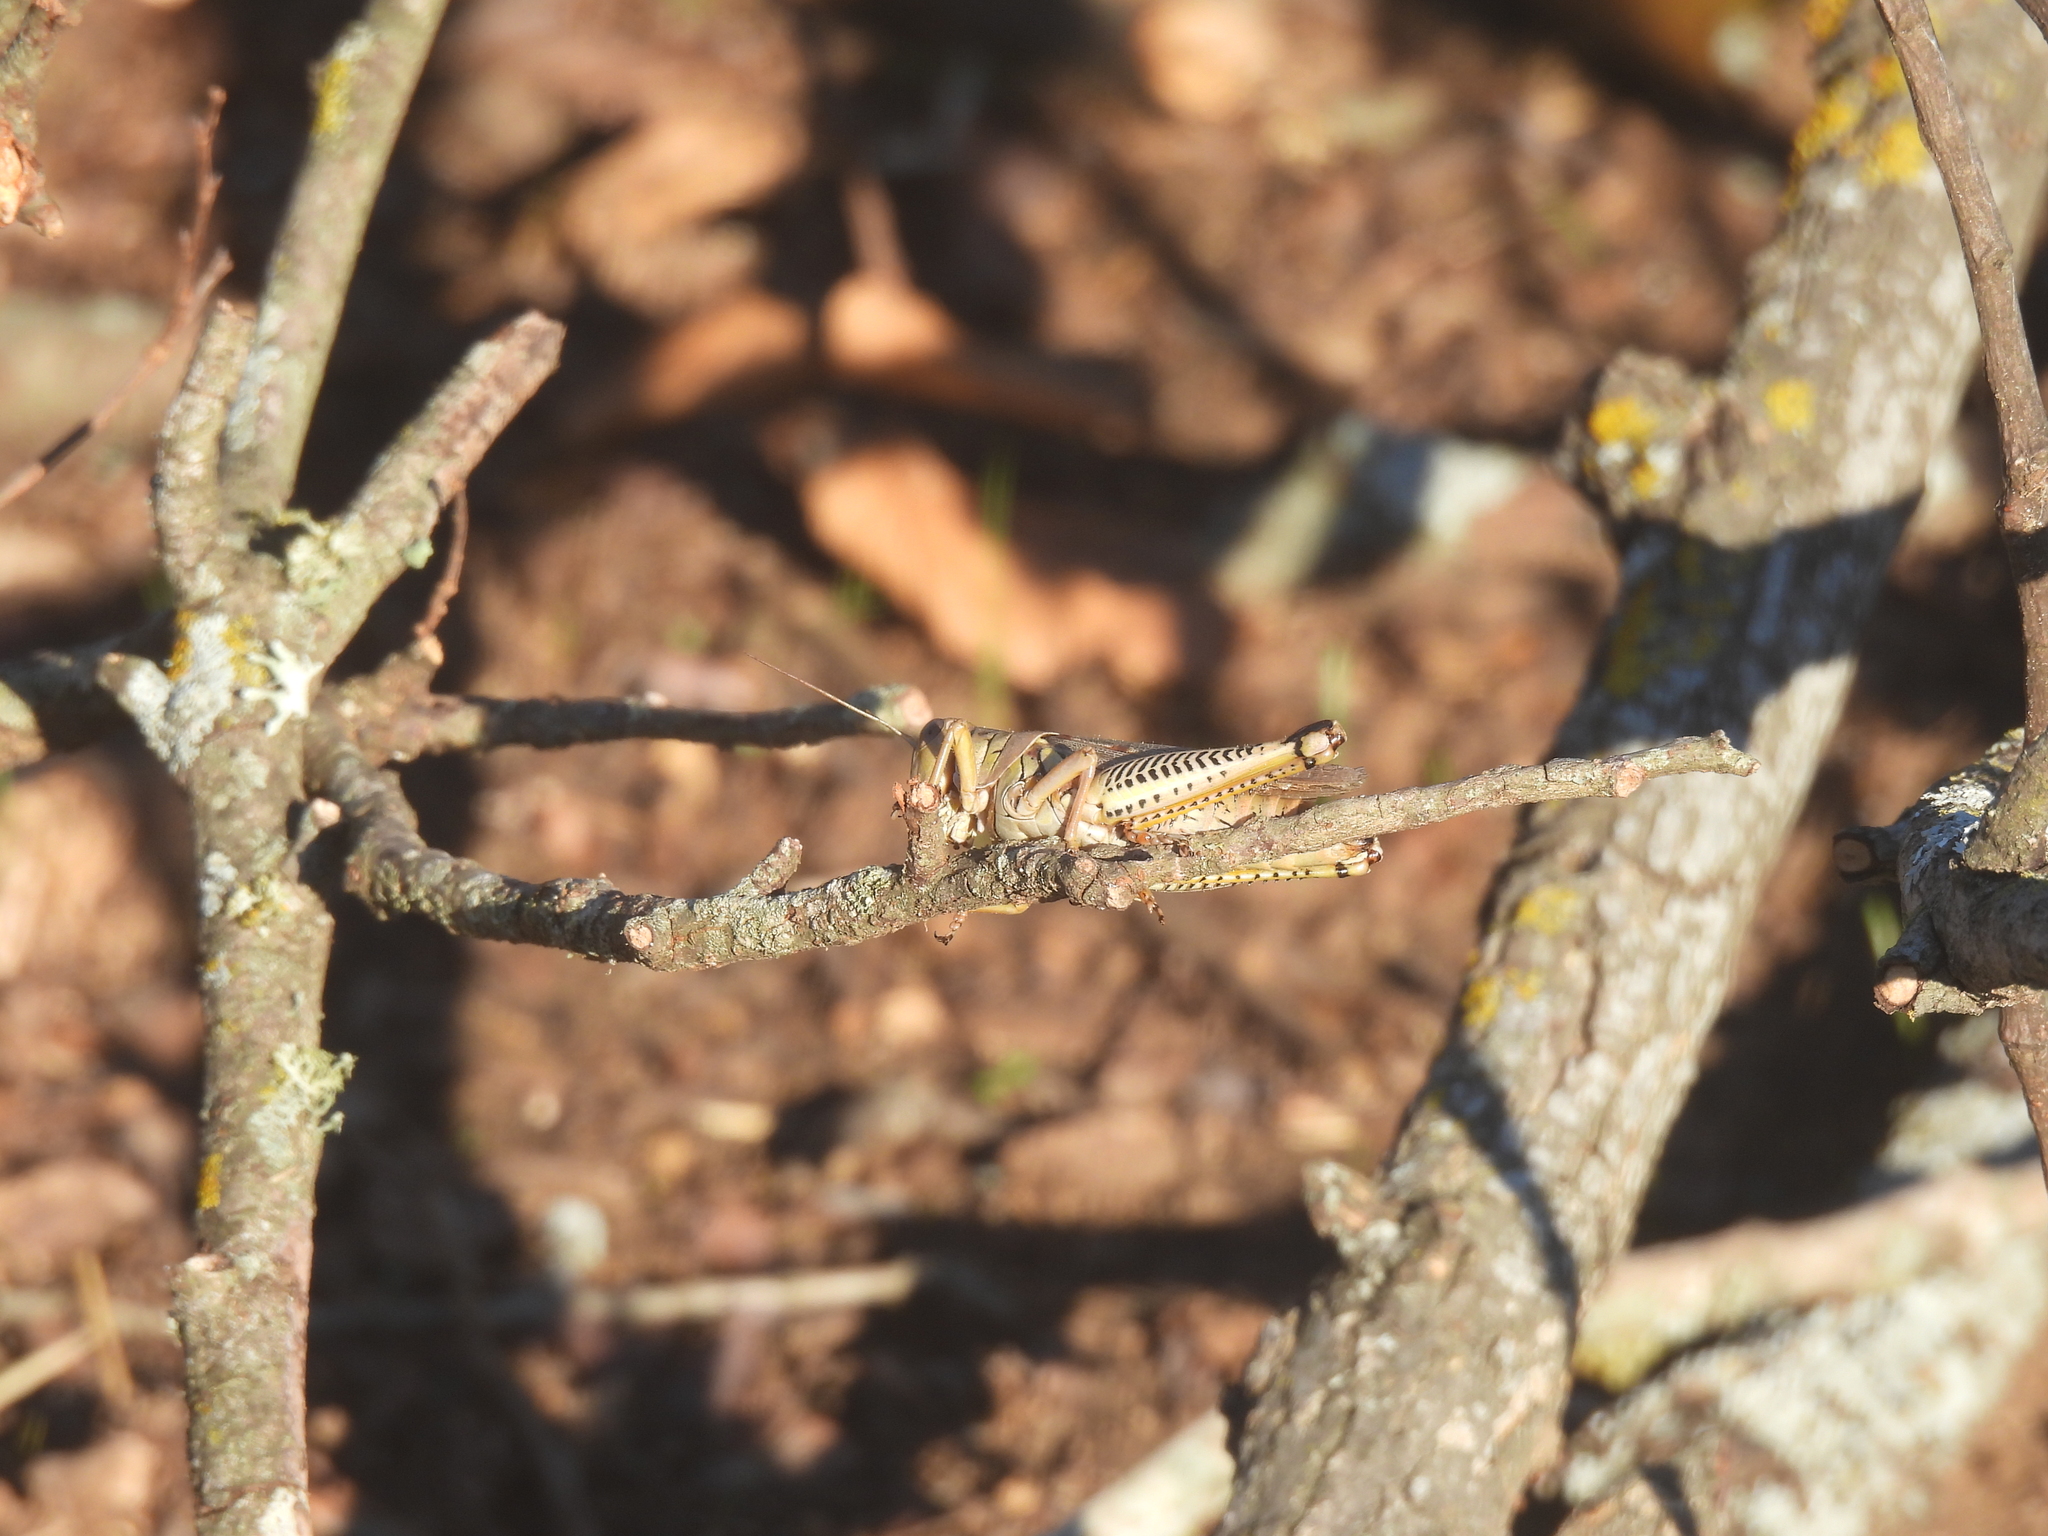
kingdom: Animalia
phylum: Arthropoda
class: Insecta
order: Orthoptera
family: Acrididae
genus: Melanoplus
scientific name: Melanoplus differentialis
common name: Differential grasshopper
